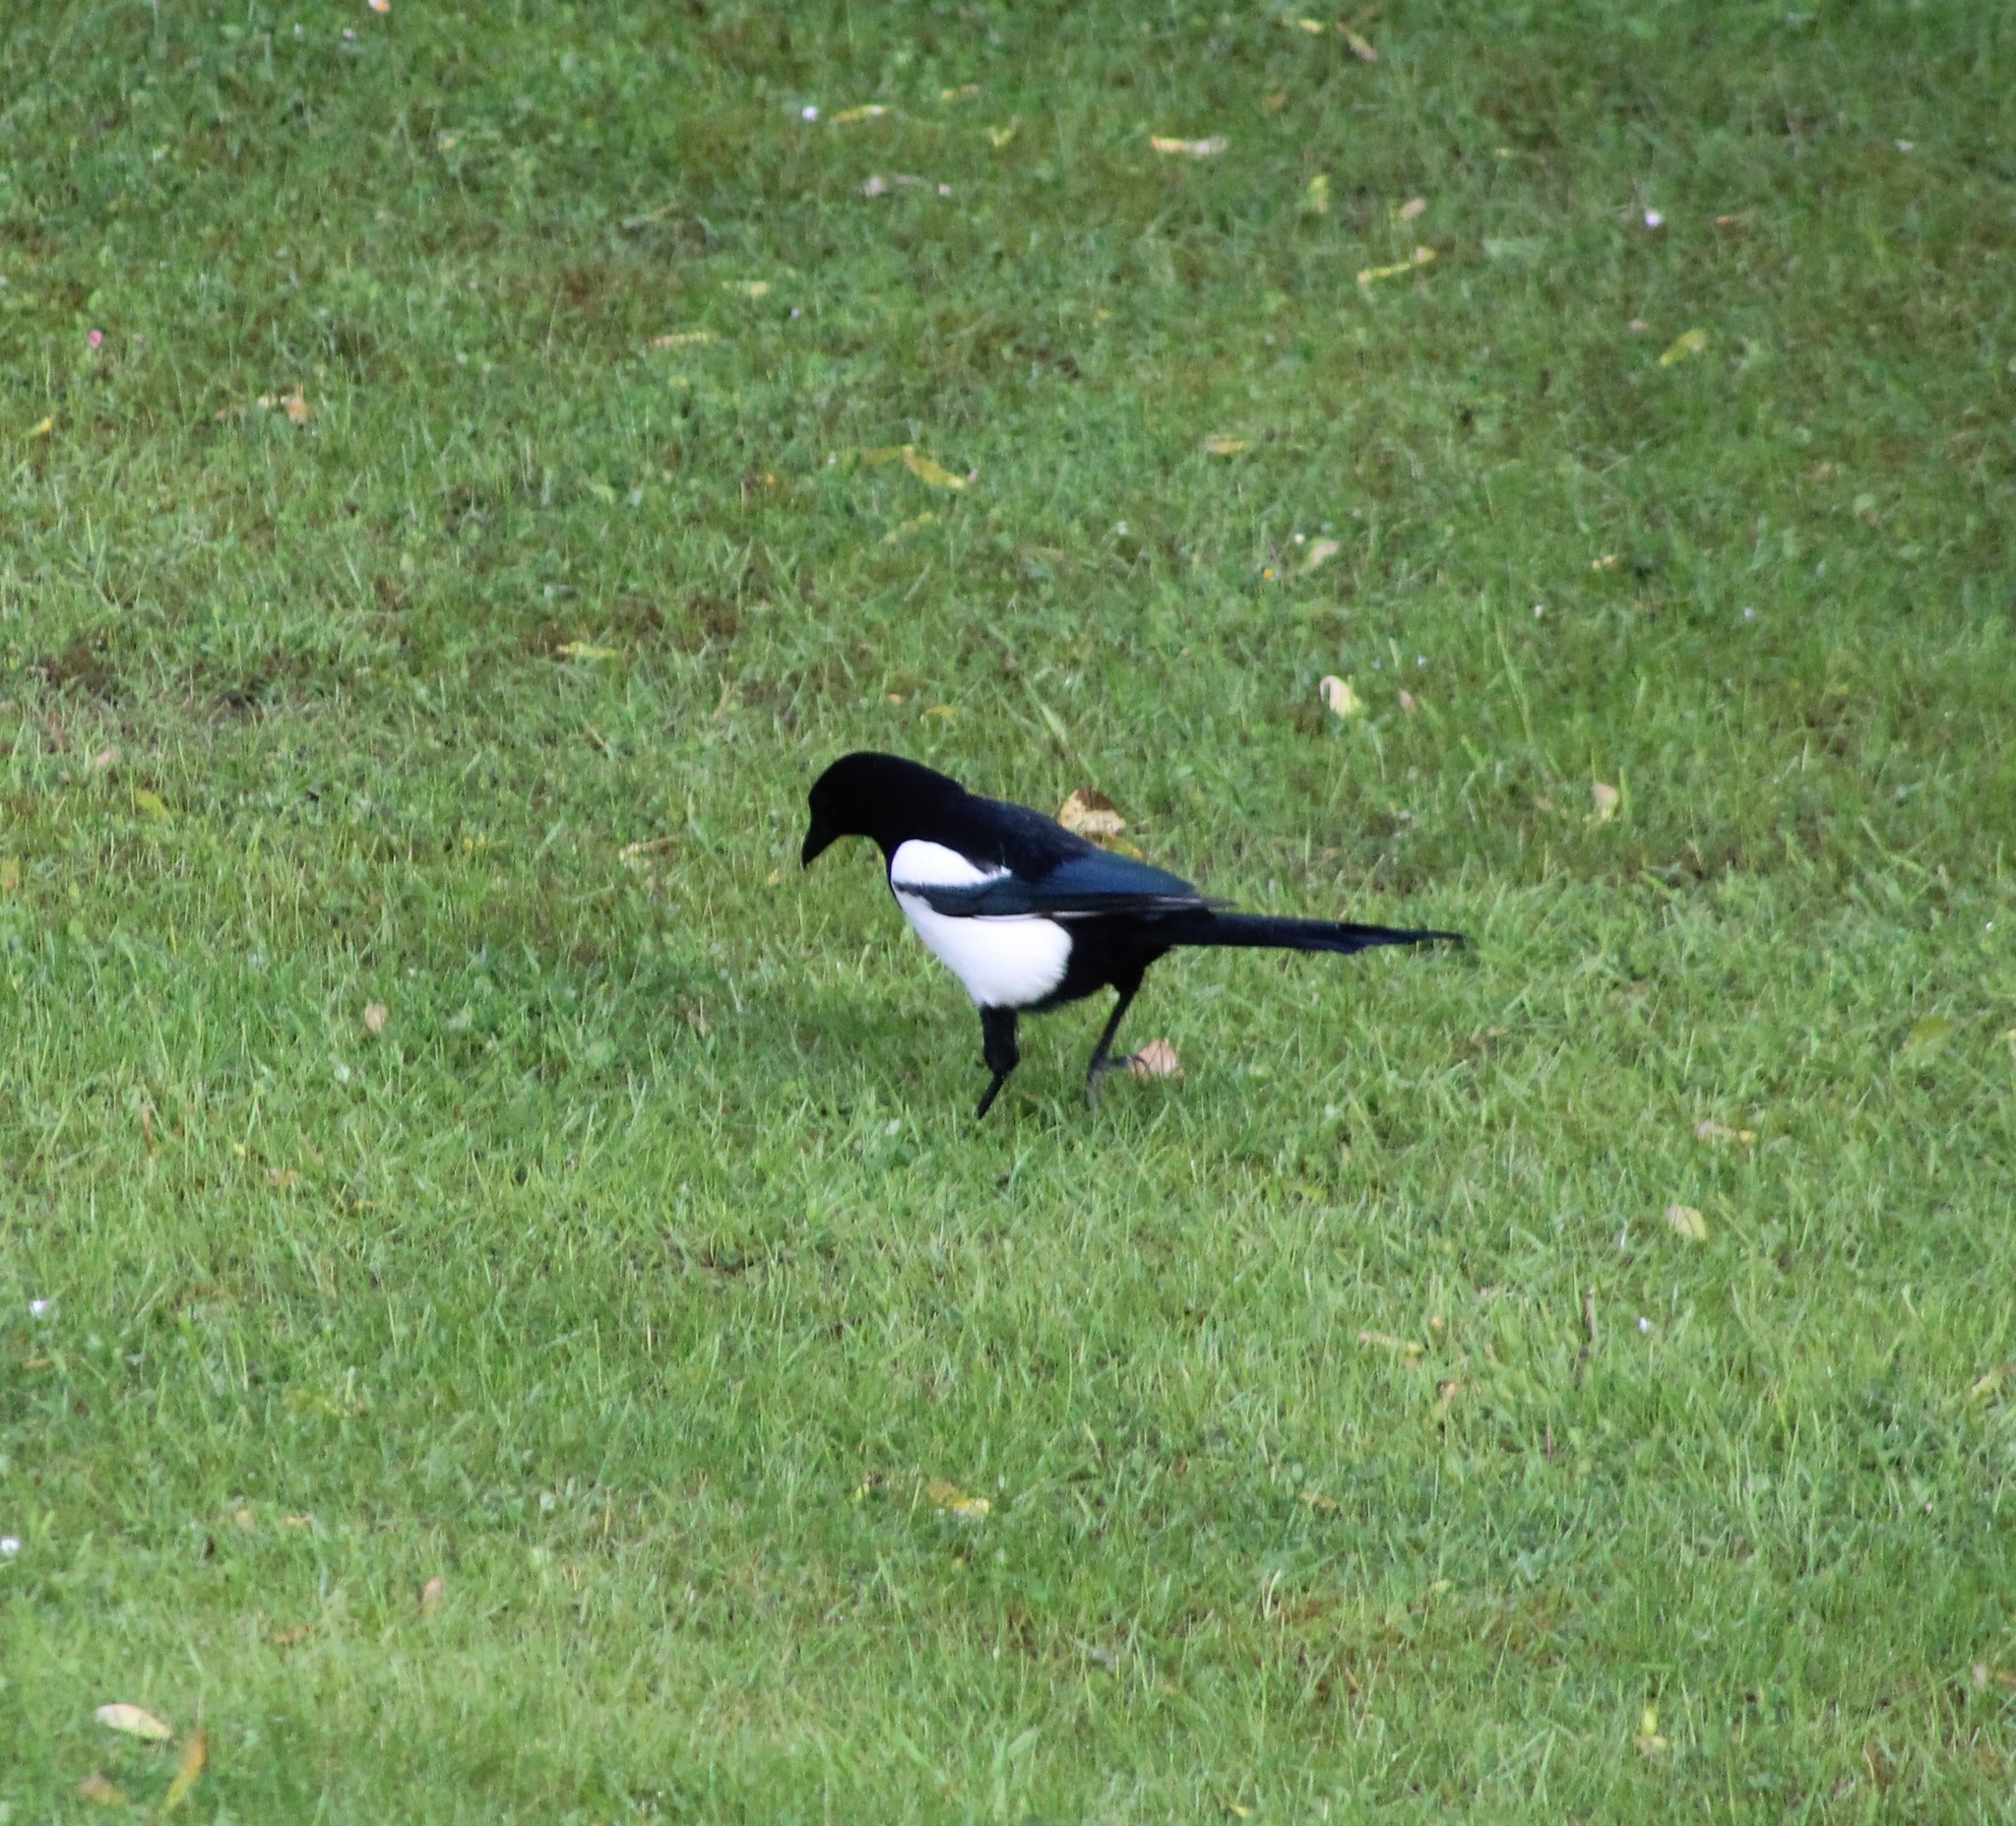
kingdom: Animalia
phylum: Chordata
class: Aves
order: Passeriformes
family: Corvidae
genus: Pica
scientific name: Pica pica
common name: Eurasian magpie
